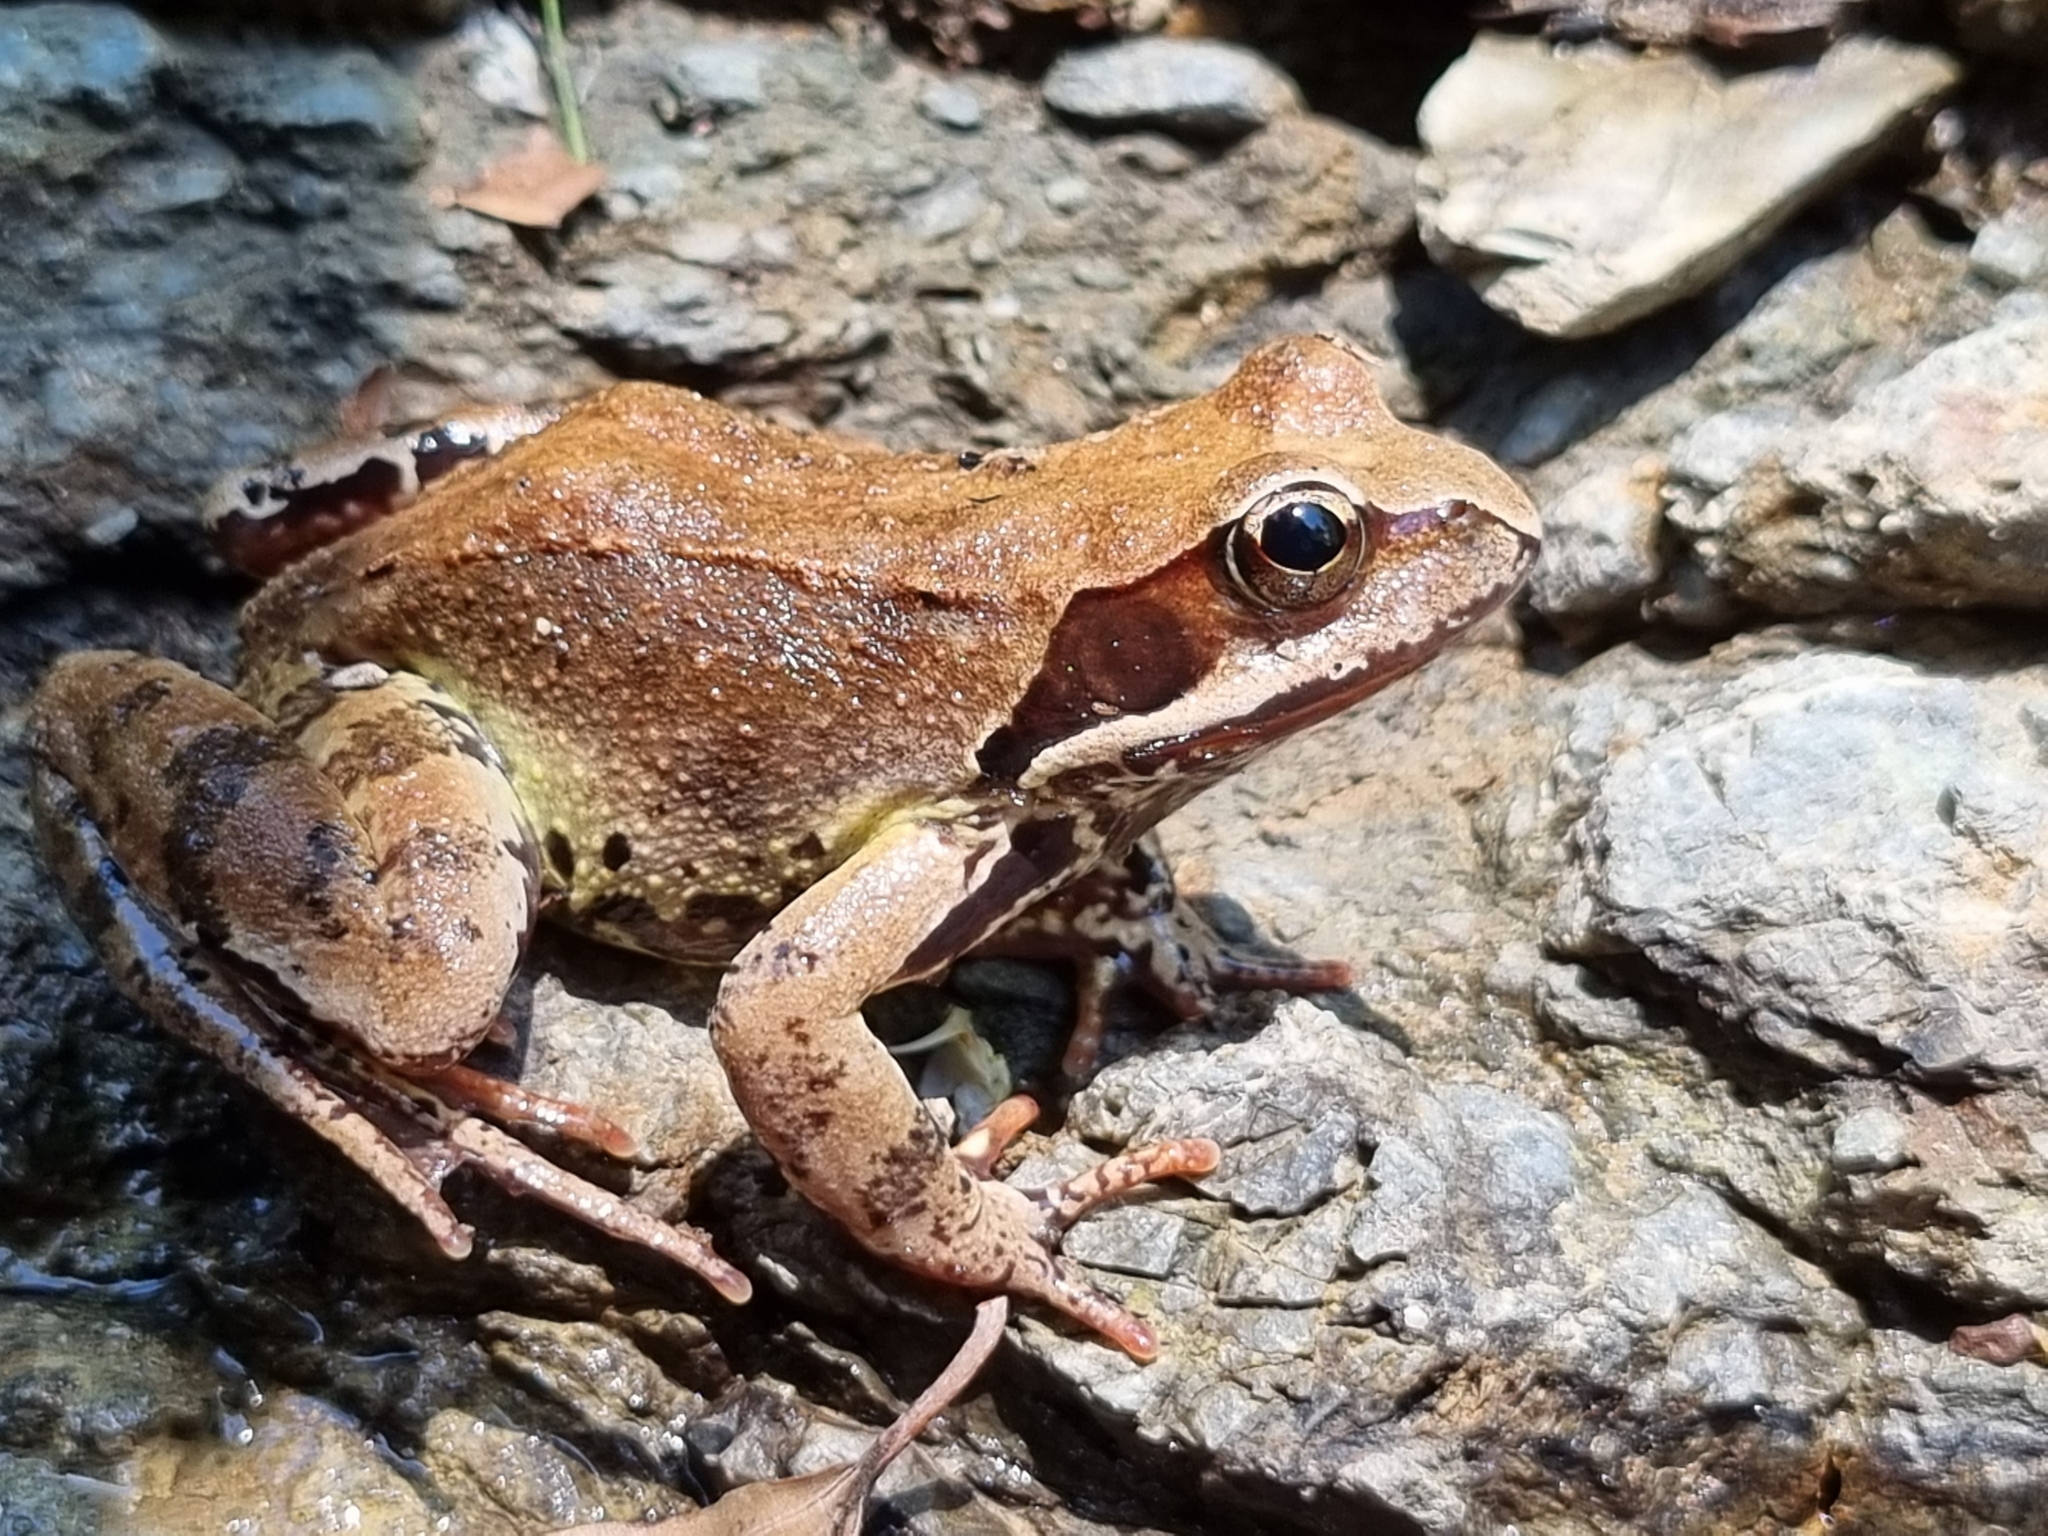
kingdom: Animalia
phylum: Chordata
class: Amphibia
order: Anura
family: Ranidae
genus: Rana
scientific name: Rana temporaria
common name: Common frog
